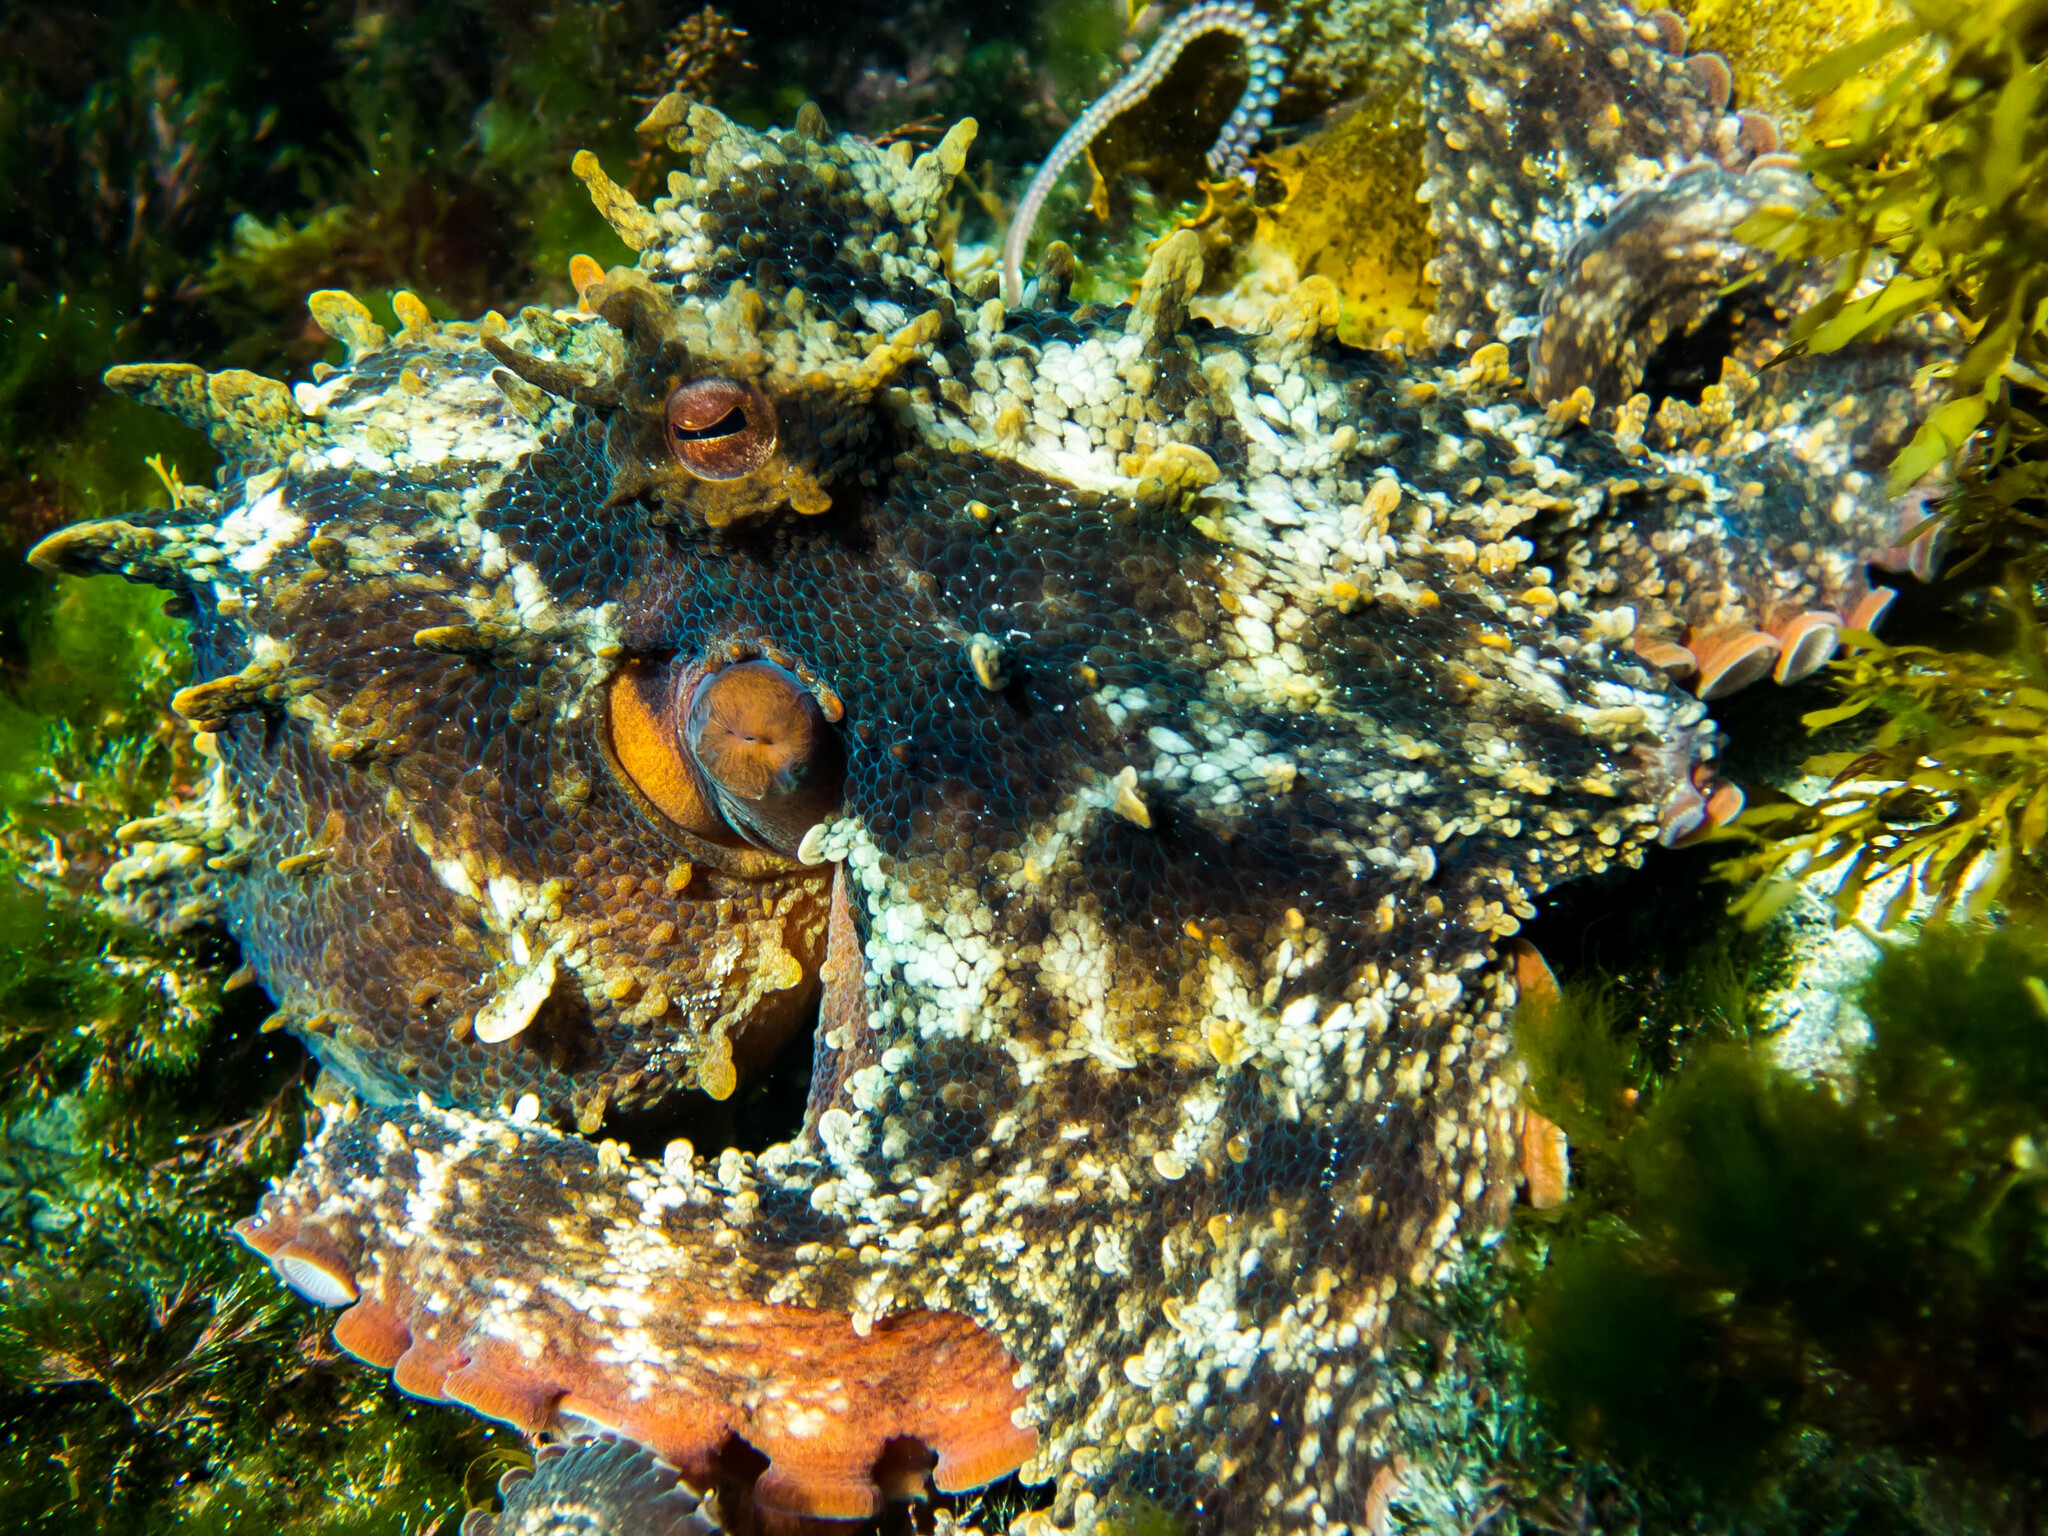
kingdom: Animalia
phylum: Mollusca
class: Cephalopoda
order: Octopoda
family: Octopodidae
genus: Octopus
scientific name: Octopus tetricus
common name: Sydney octopus
